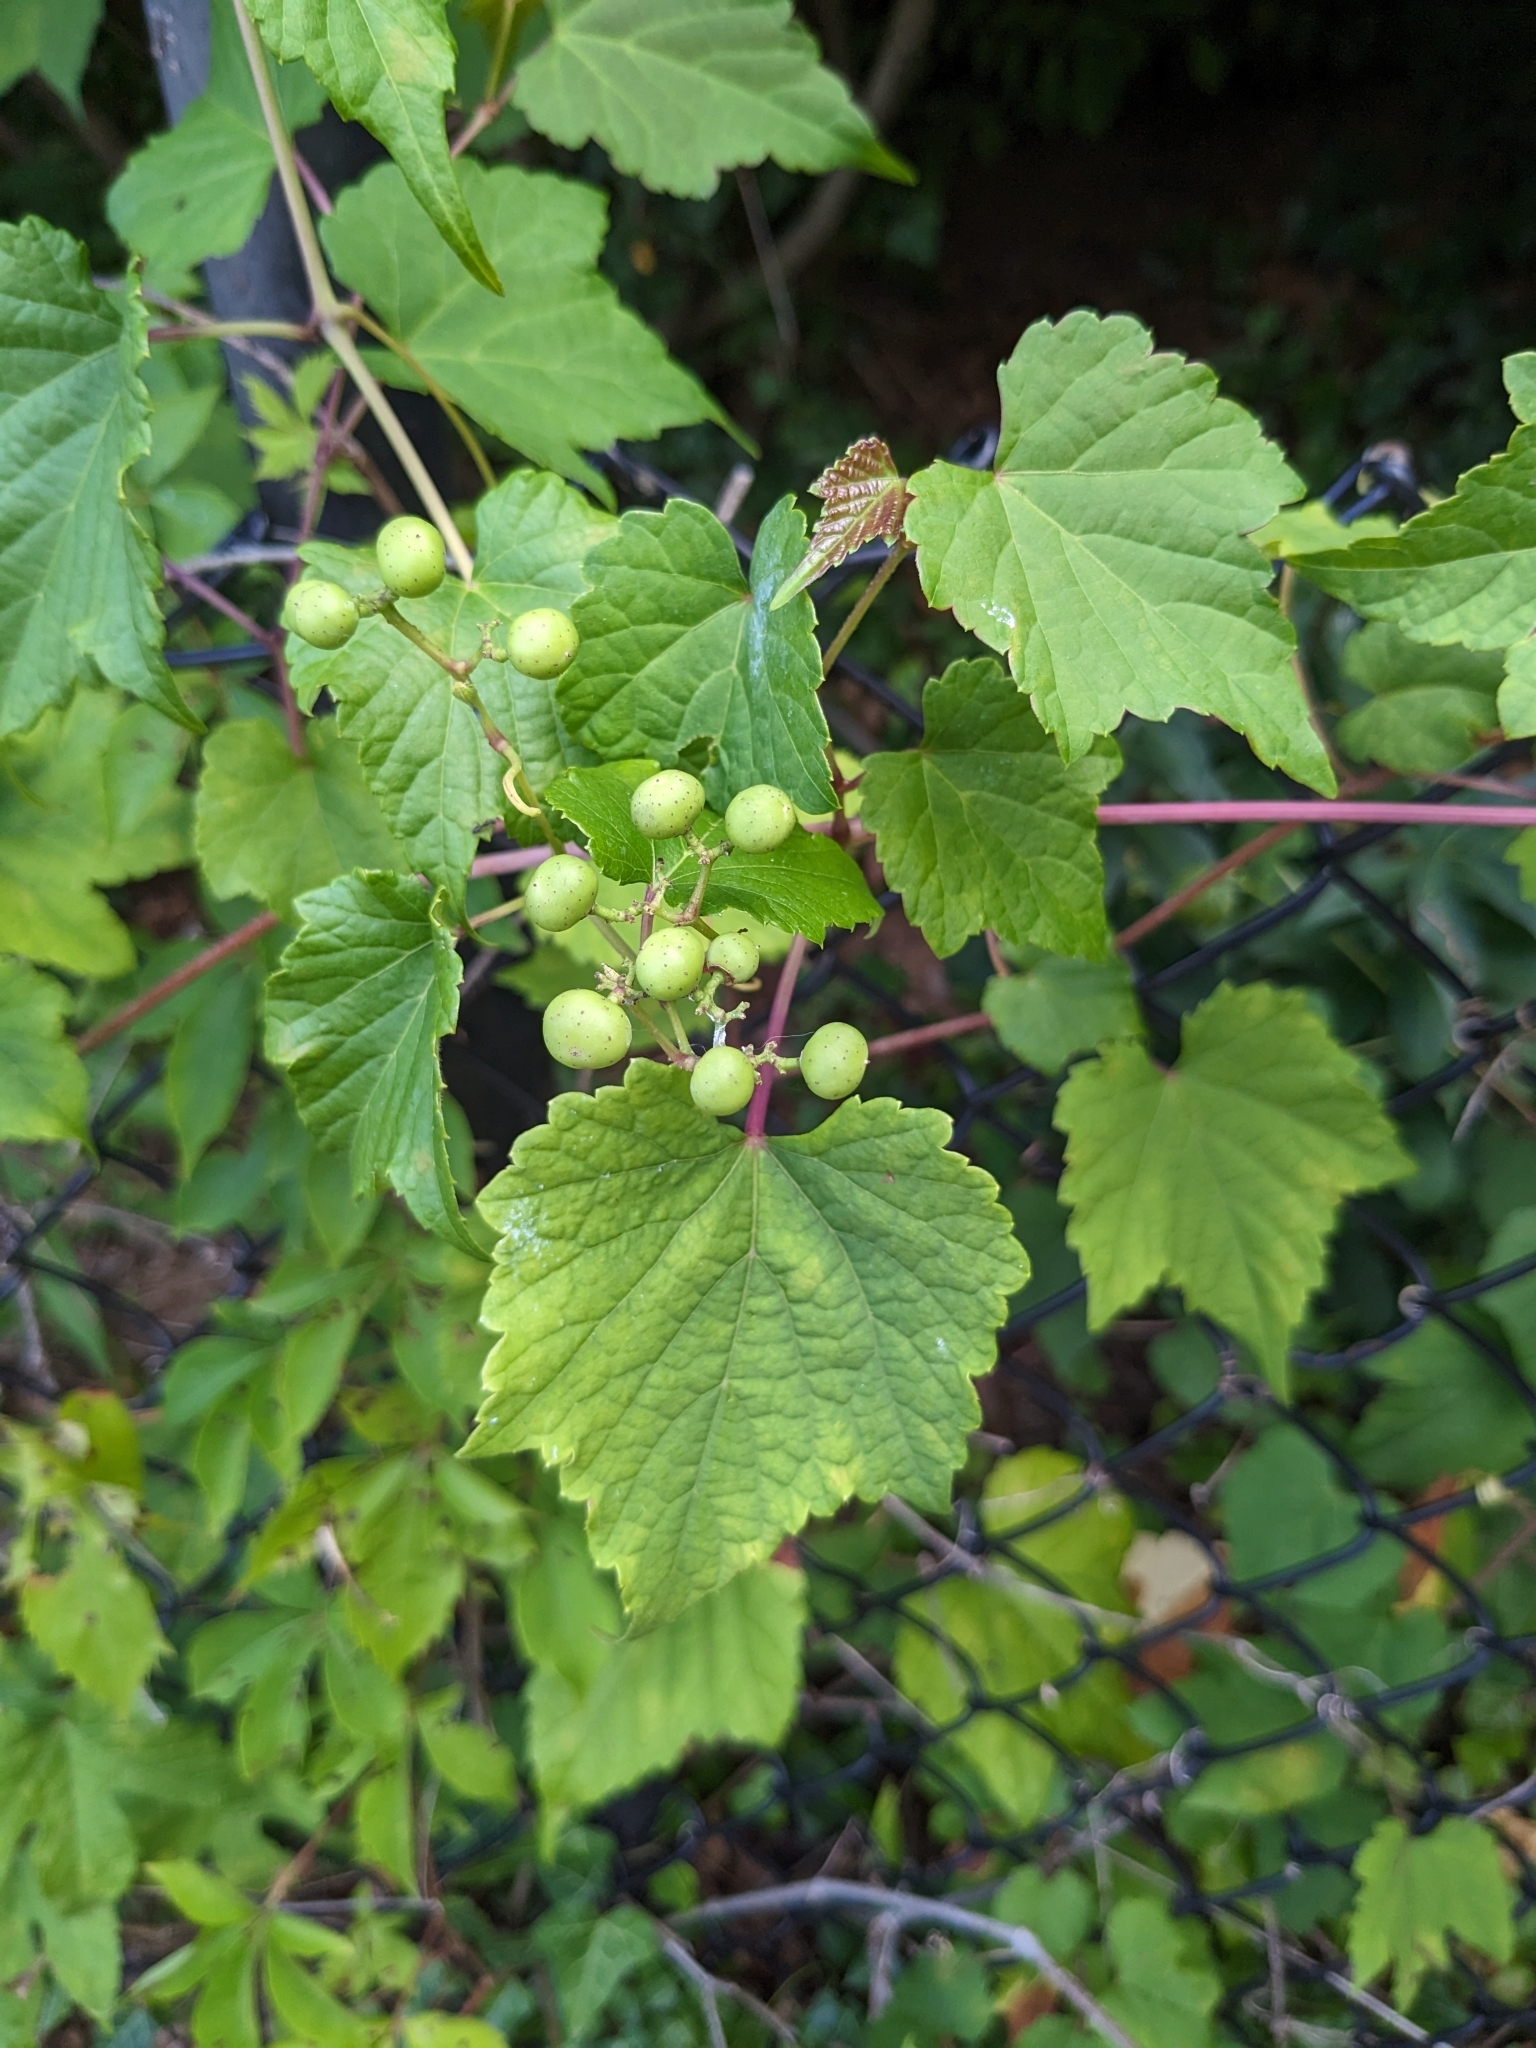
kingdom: Plantae
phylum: Tracheophyta
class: Magnoliopsida
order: Vitales
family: Vitaceae
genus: Ampelopsis
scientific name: Ampelopsis glandulosa
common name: Amur peppervine
